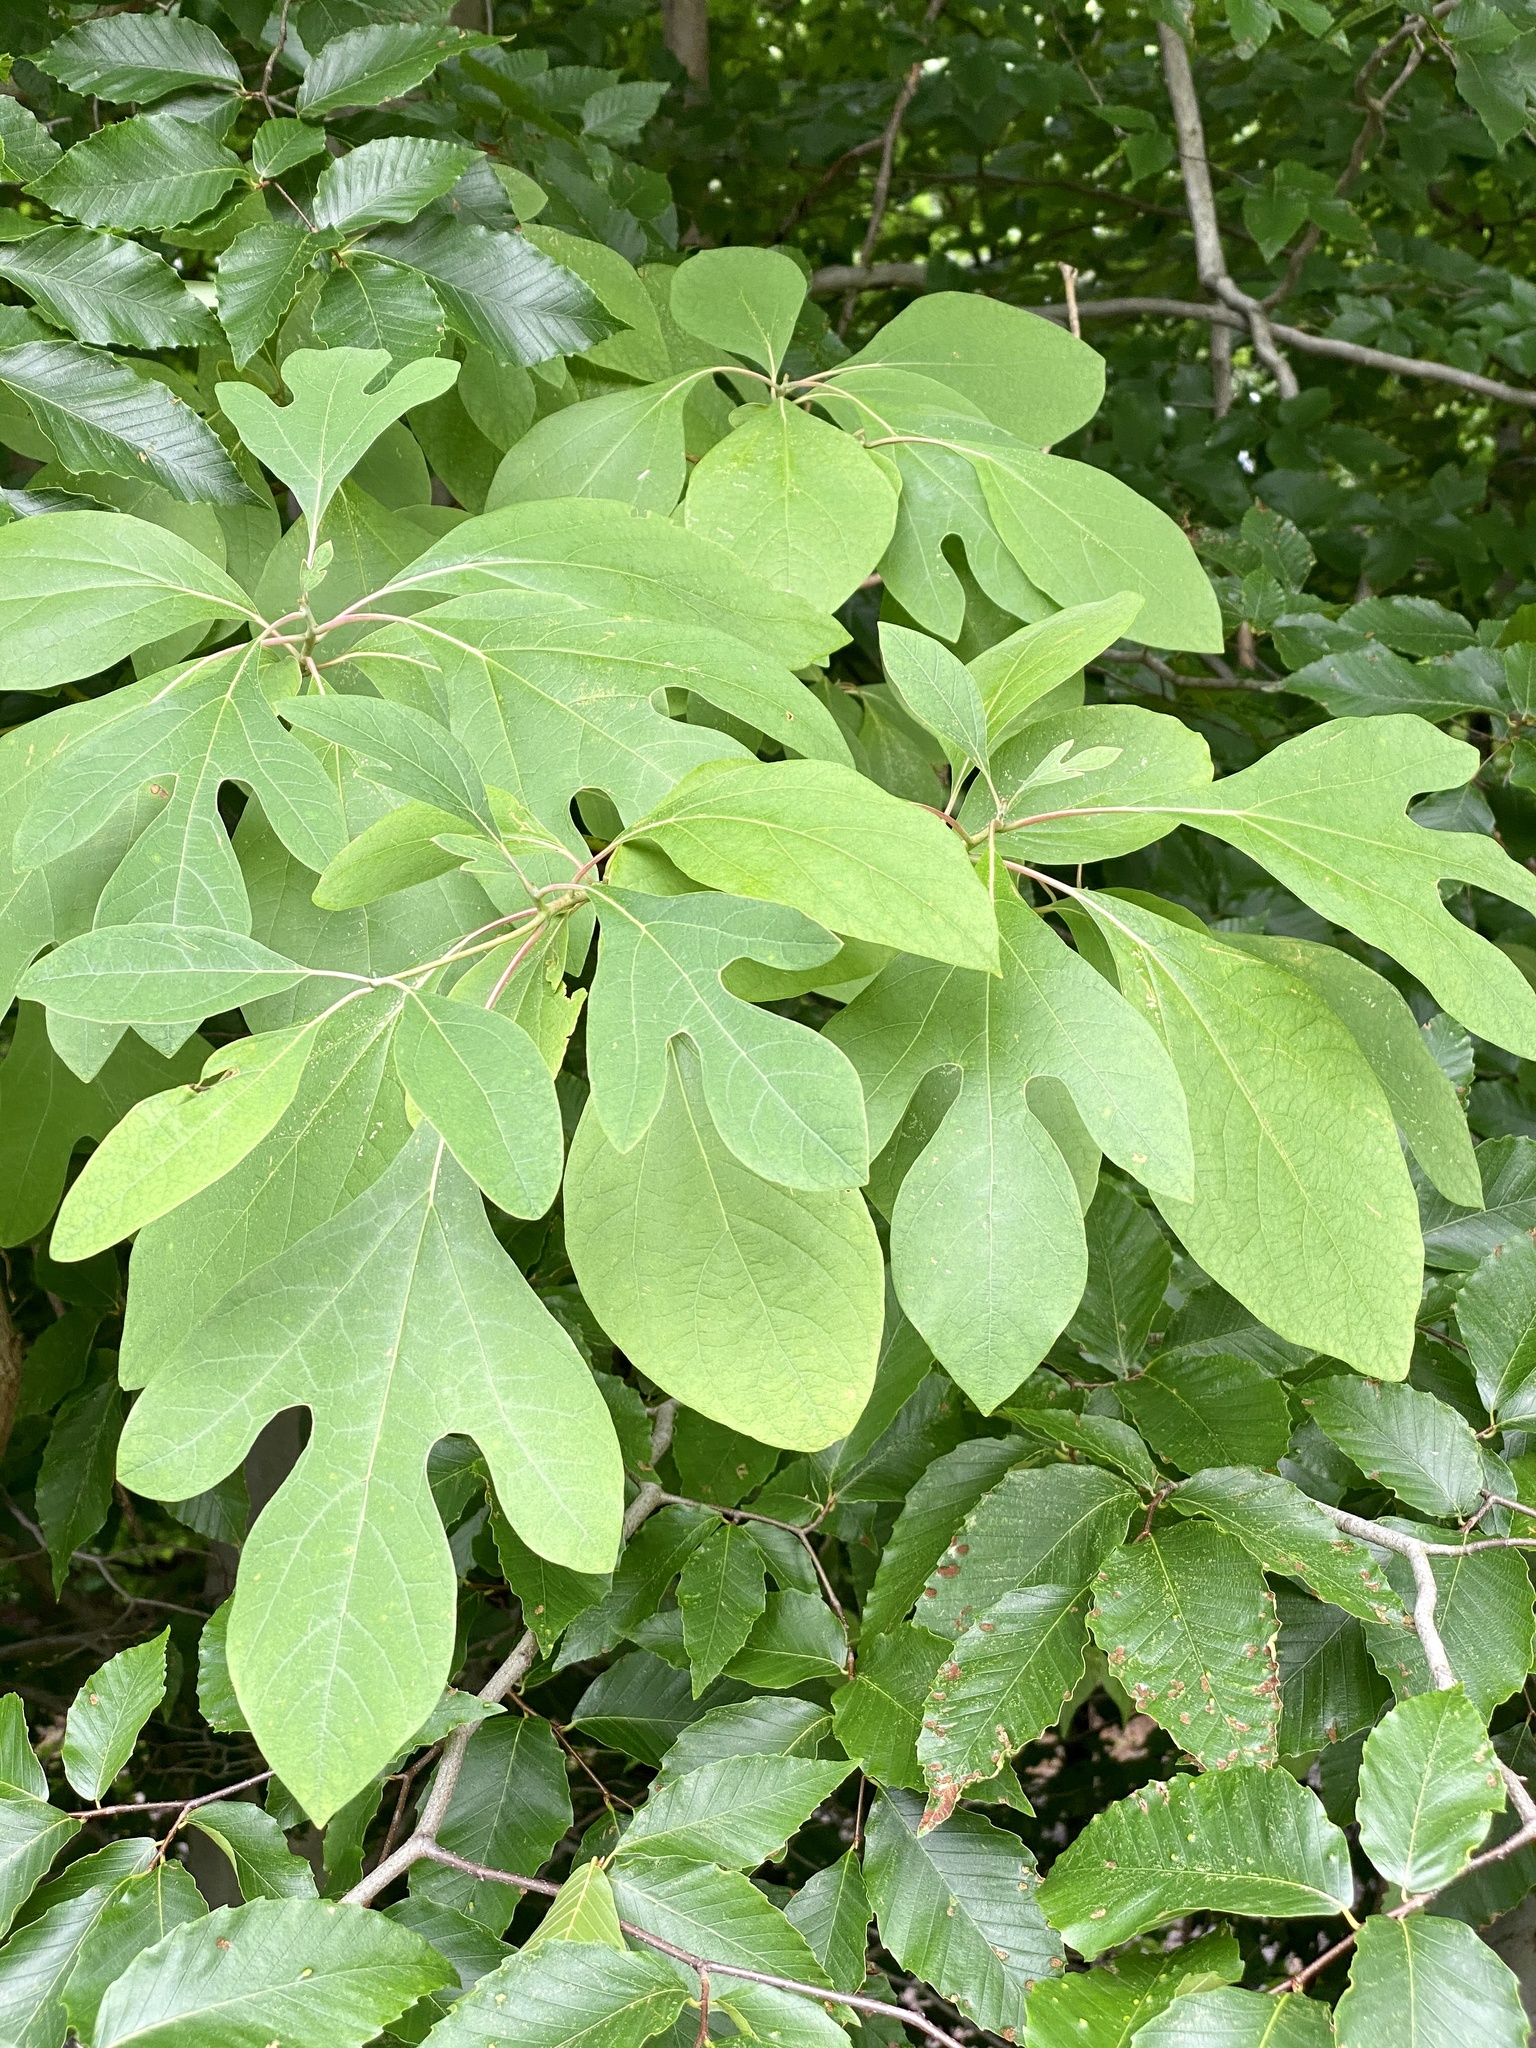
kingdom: Plantae
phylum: Tracheophyta
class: Magnoliopsida
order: Laurales
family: Lauraceae
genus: Sassafras
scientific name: Sassafras albidum
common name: Sassafras
